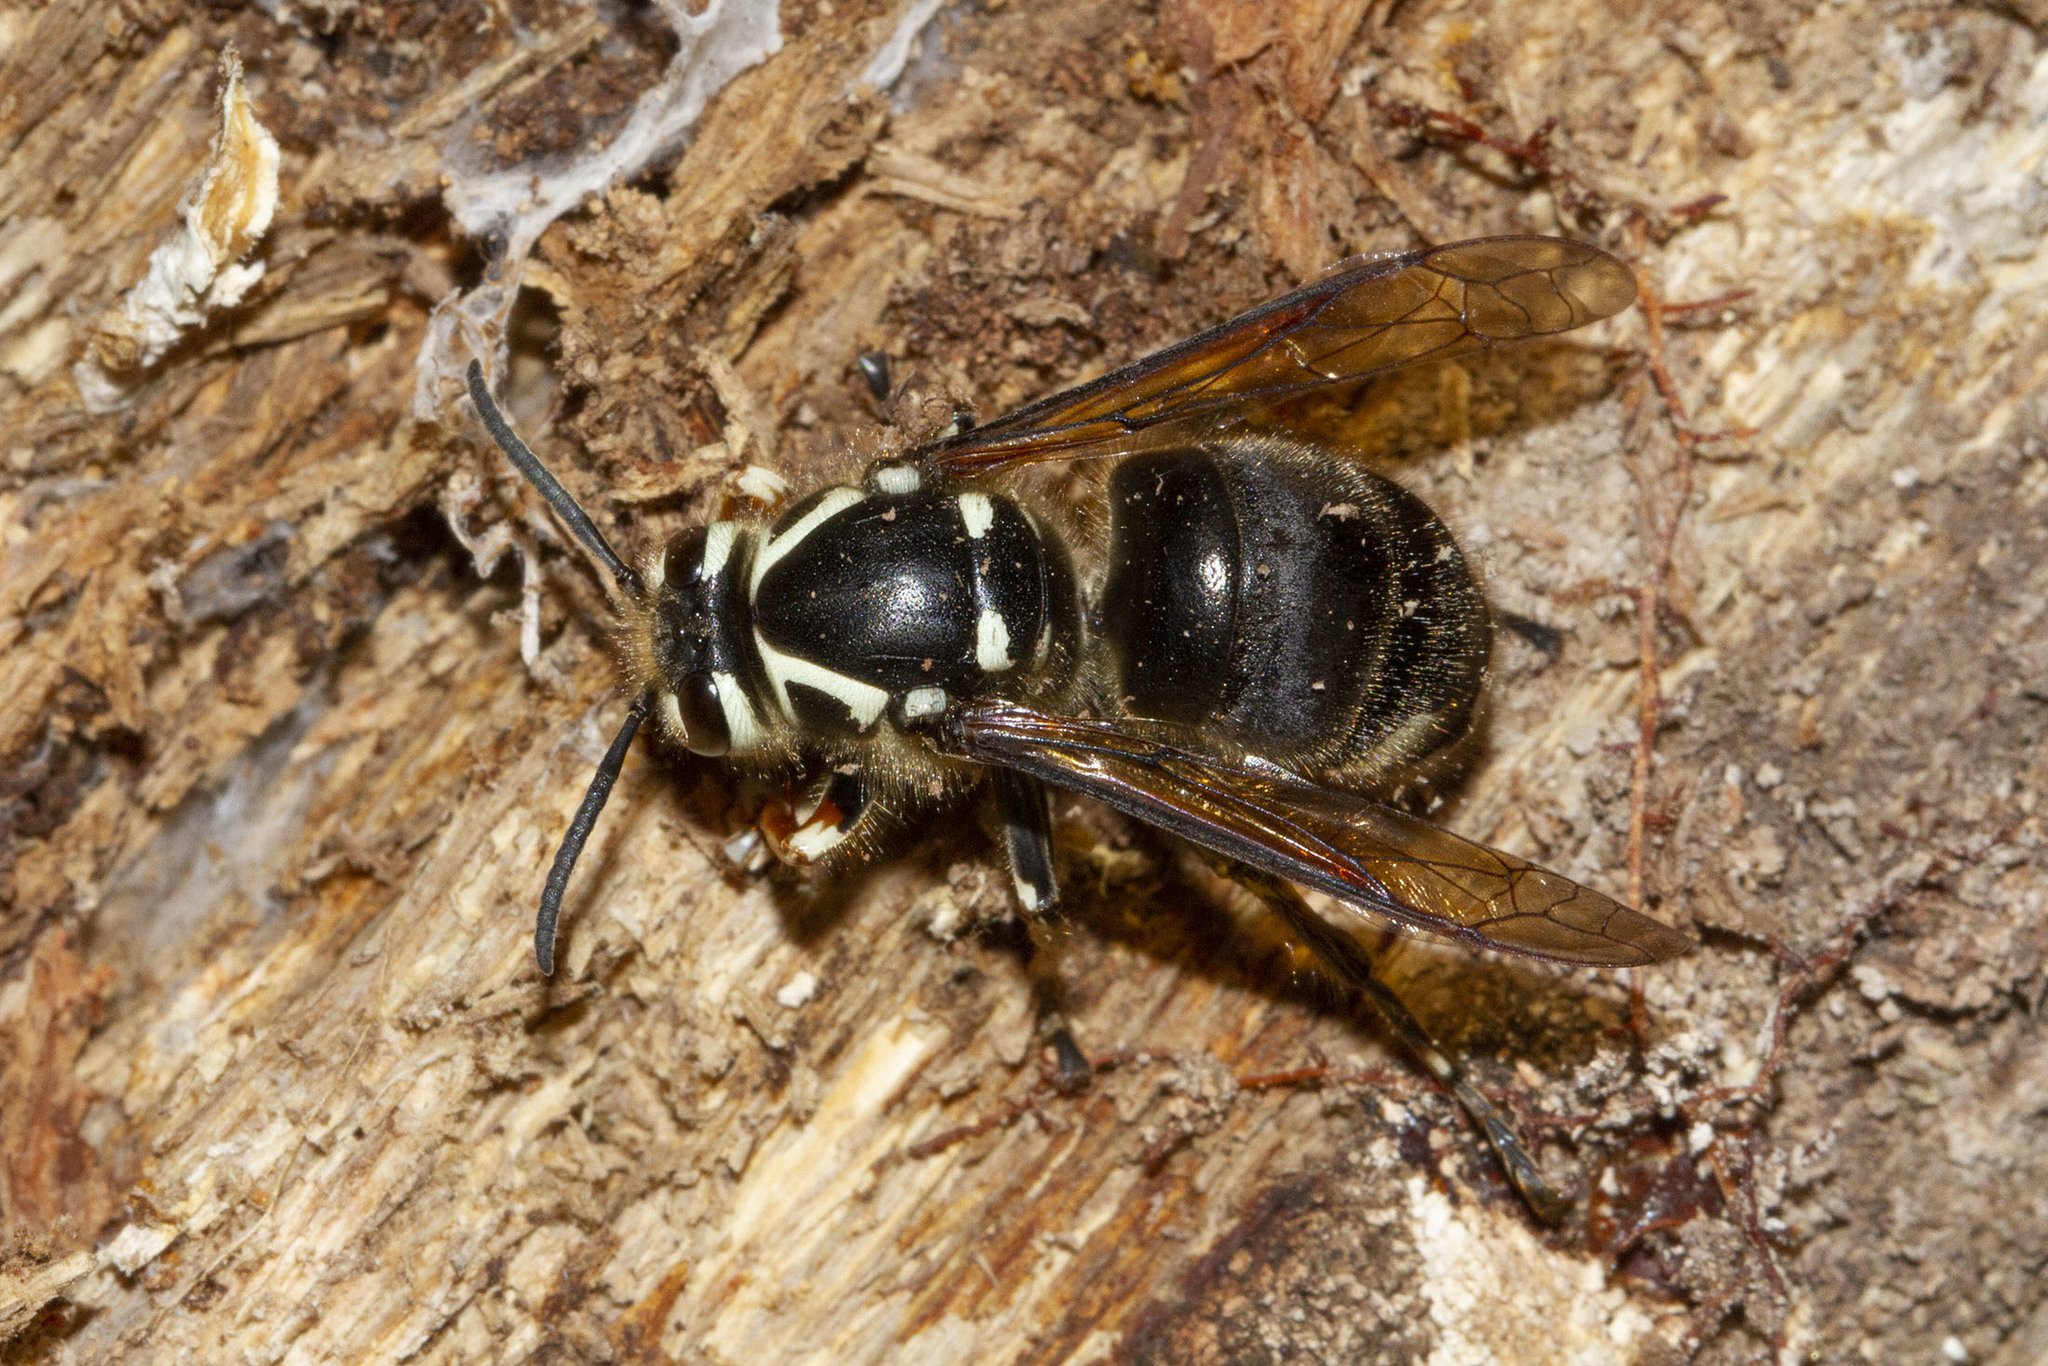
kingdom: Animalia
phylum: Arthropoda
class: Insecta
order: Hymenoptera
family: Vespidae
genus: Dolichovespula
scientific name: Dolichovespula maculata
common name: Bald-faced hornet
